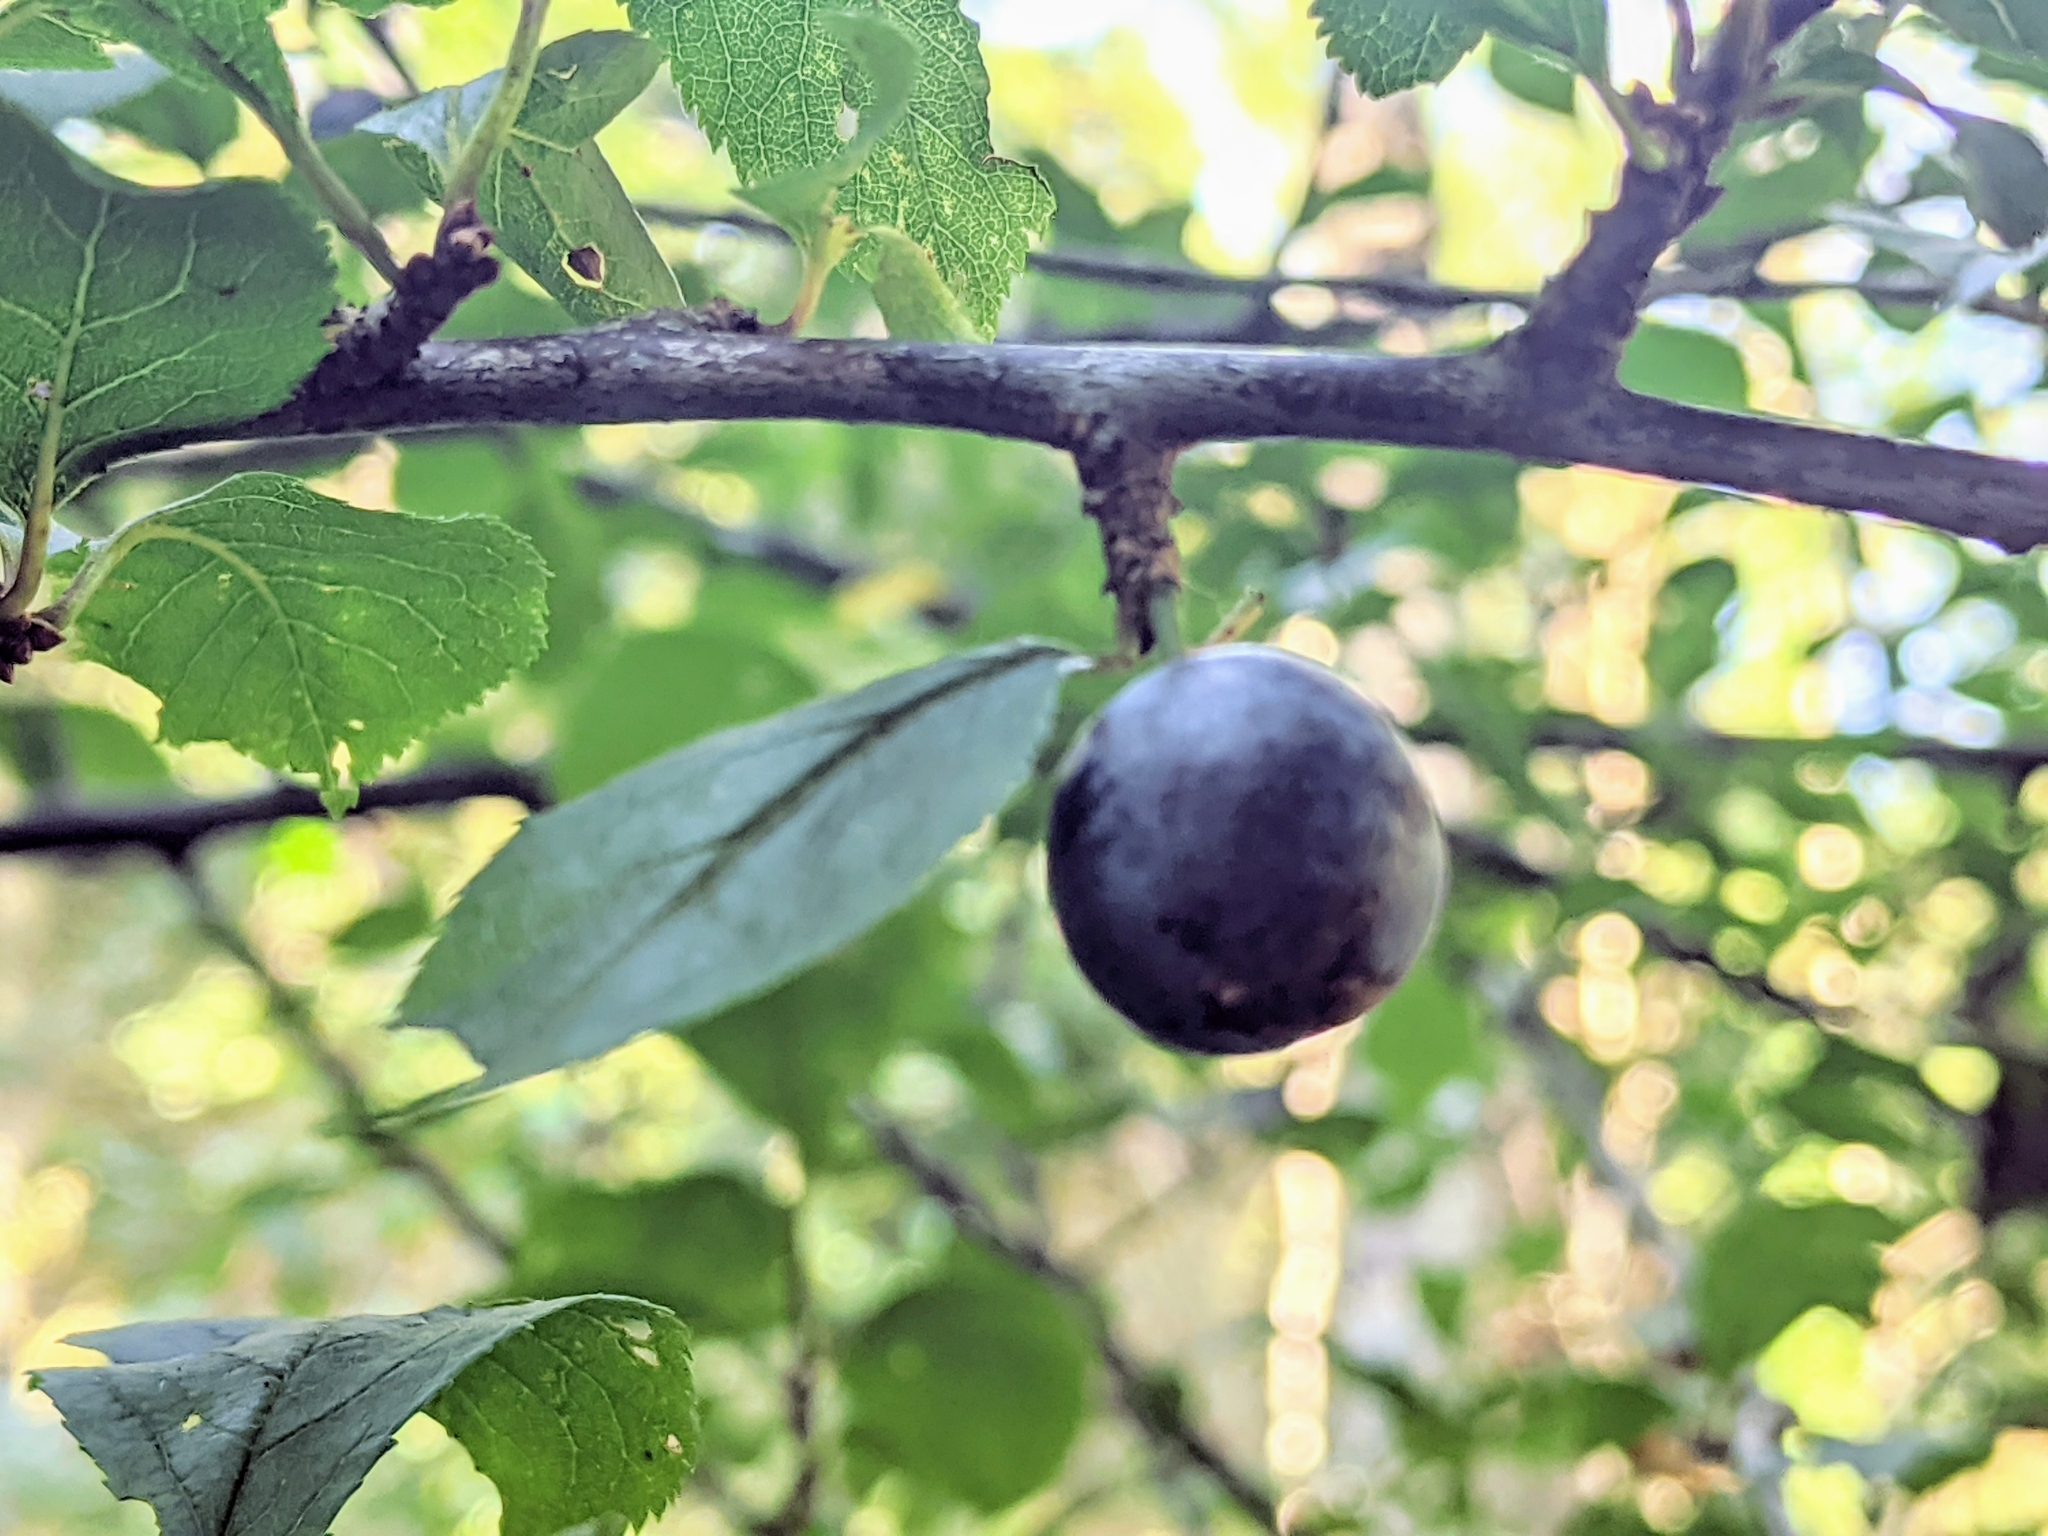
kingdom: Plantae
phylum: Tracheophyta
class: Magnoliopsida
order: Rosales
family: Rosaceae
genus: Prunus
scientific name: Prunus spinosa
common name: Blackthorn
